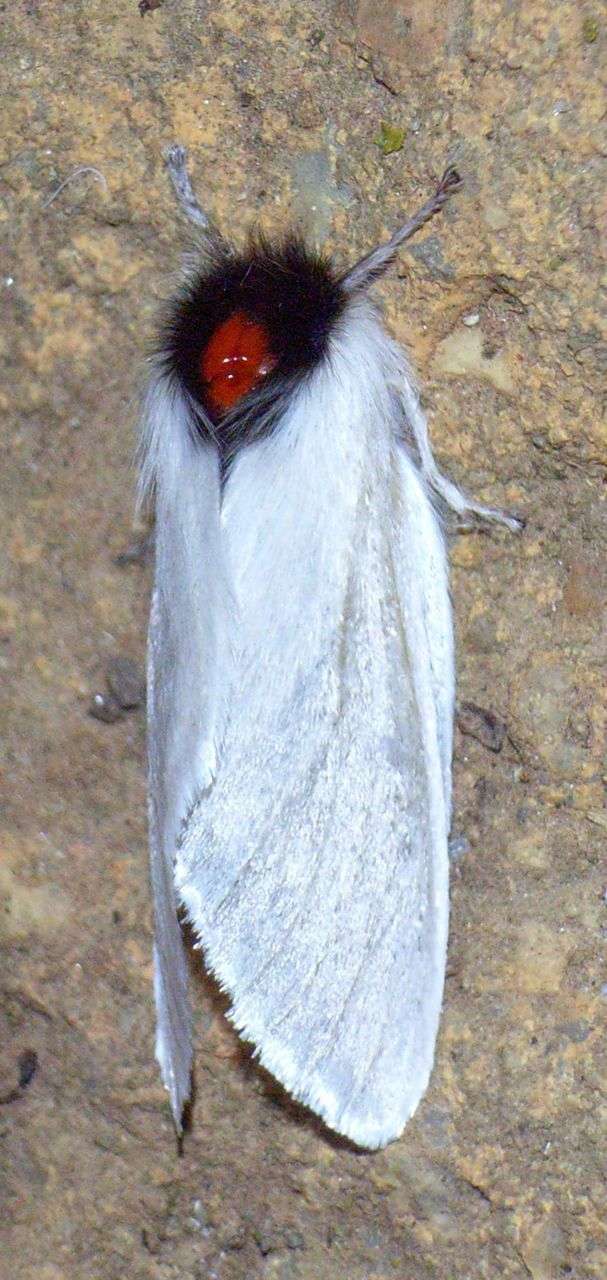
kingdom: Animalia
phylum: Arthropoda
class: Insecta
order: Lepidoptera
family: Notodontidae
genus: Trichiocercus
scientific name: Trichiocercus sparshalli
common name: Long-tailed satin
